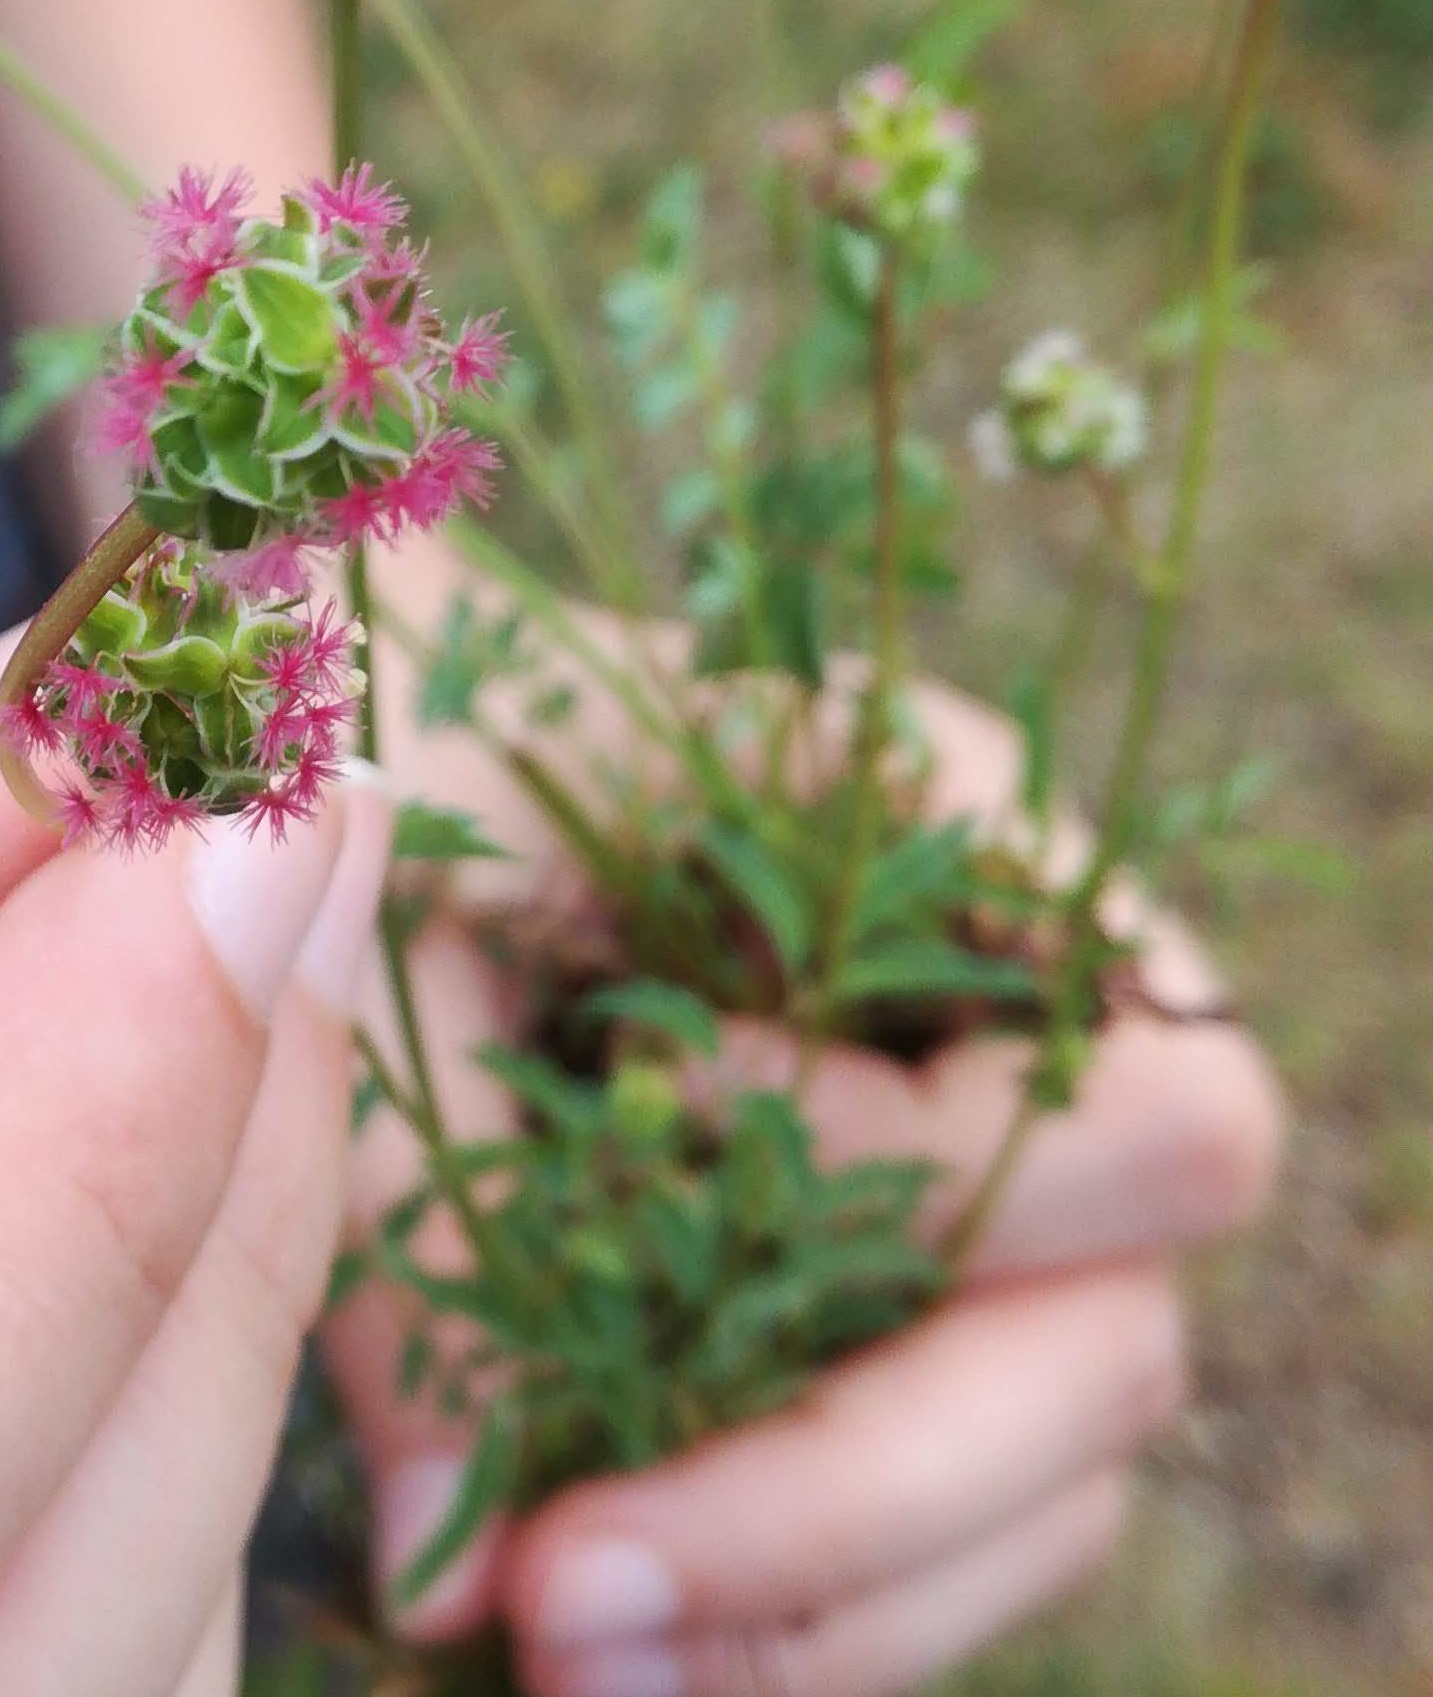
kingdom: Plantae
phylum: Tracheophyta
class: Magnoliopsida
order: Rosales
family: Rosaceae
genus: Poterium
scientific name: Poterium sanguisorba
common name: Salad burnet
